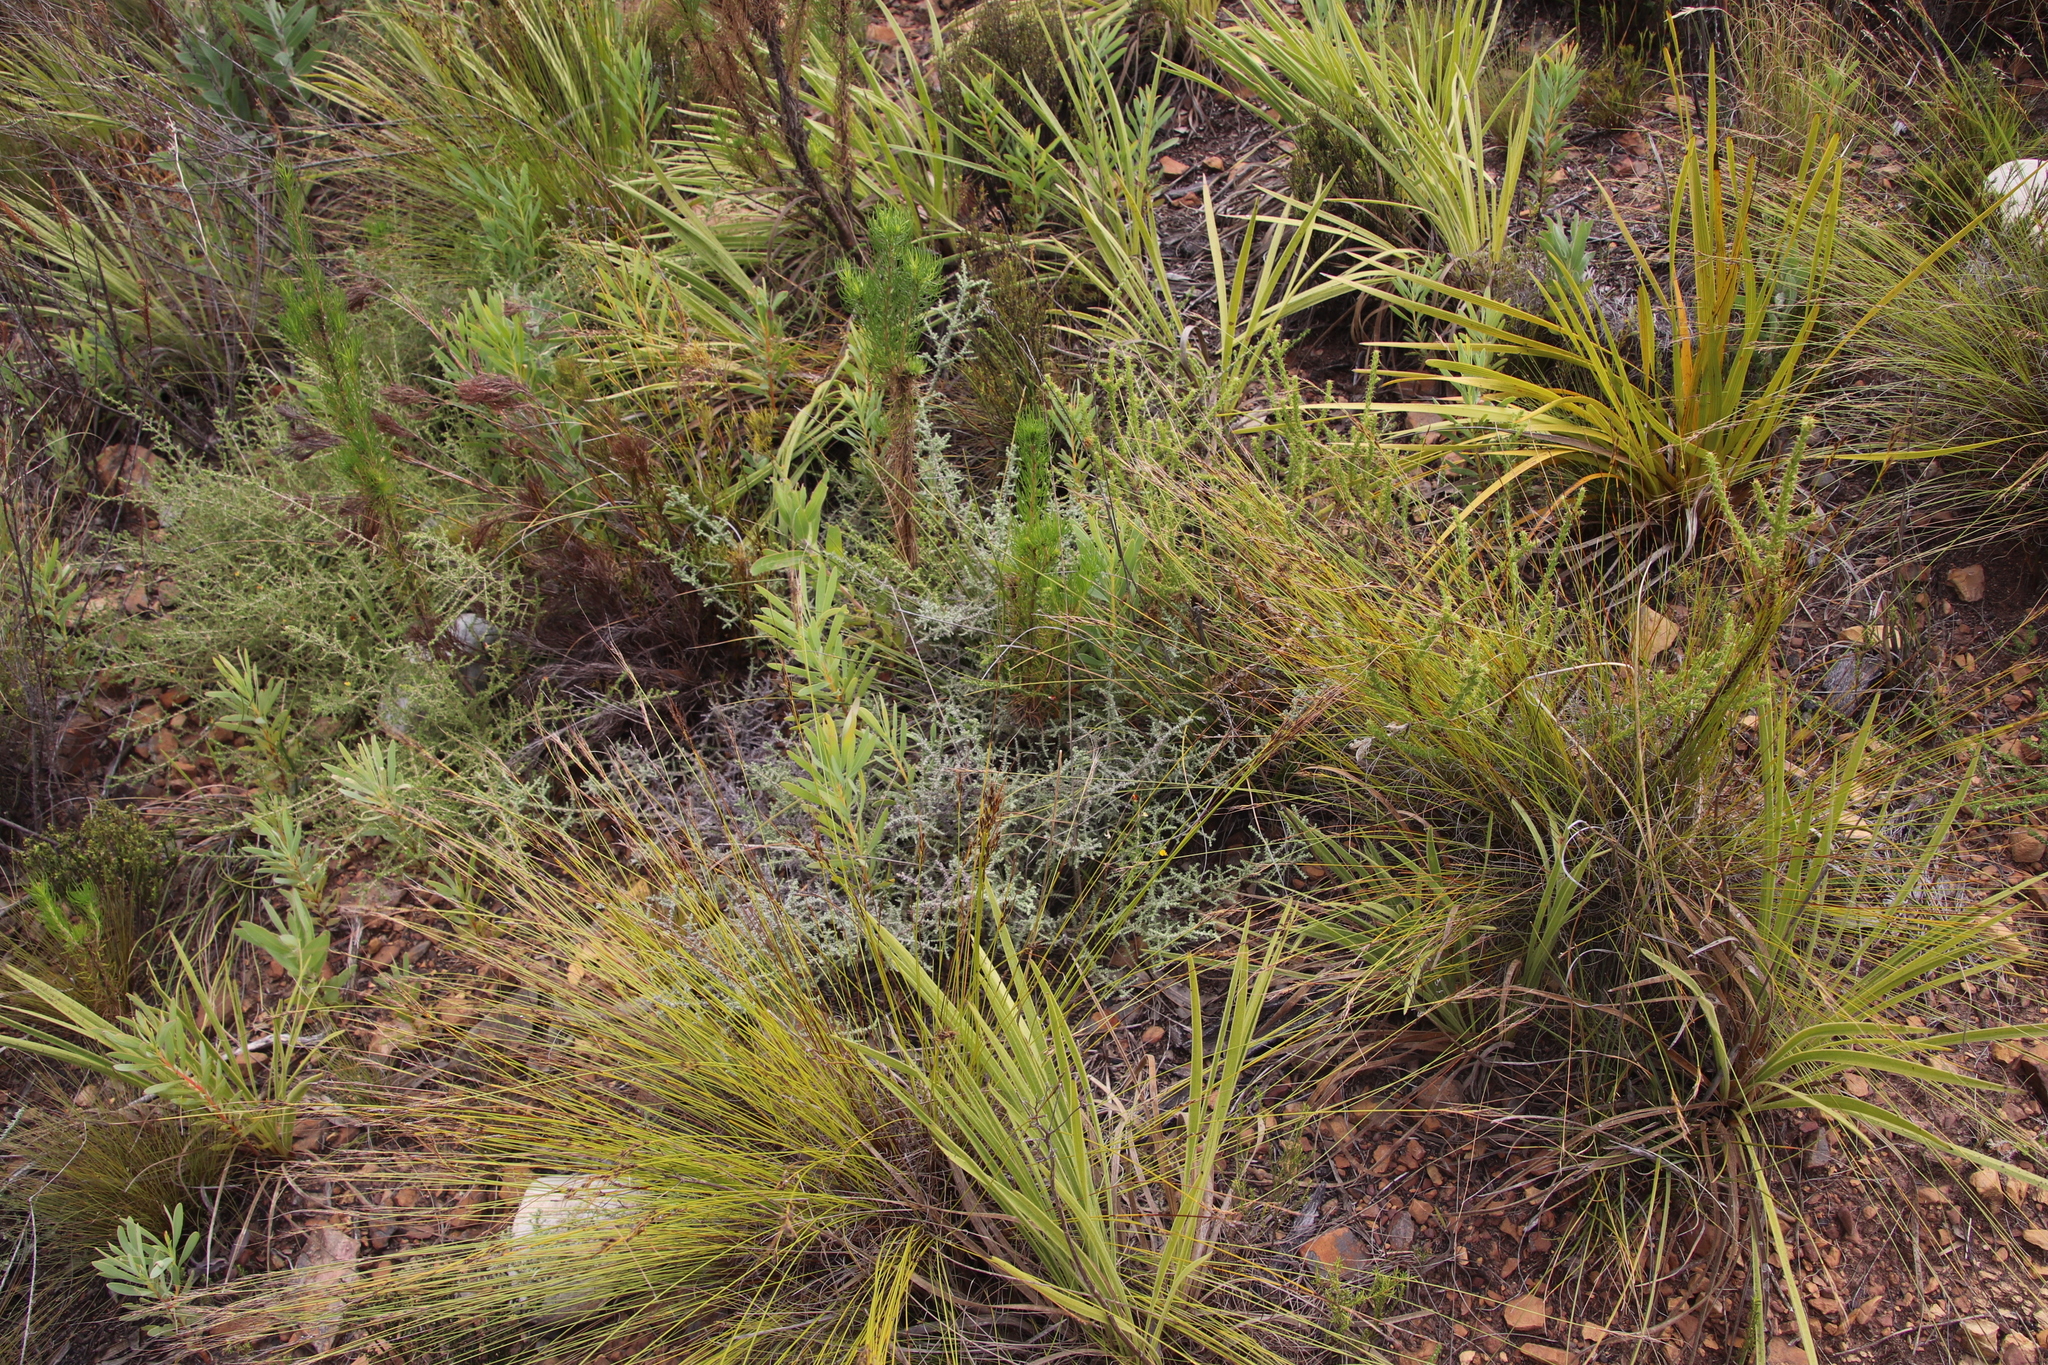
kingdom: Plantae
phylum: Tracheophyta
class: Magnoliopsida
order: Asterales
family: Asteraceae
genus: Seriphium
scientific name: Seriphium plumosum
